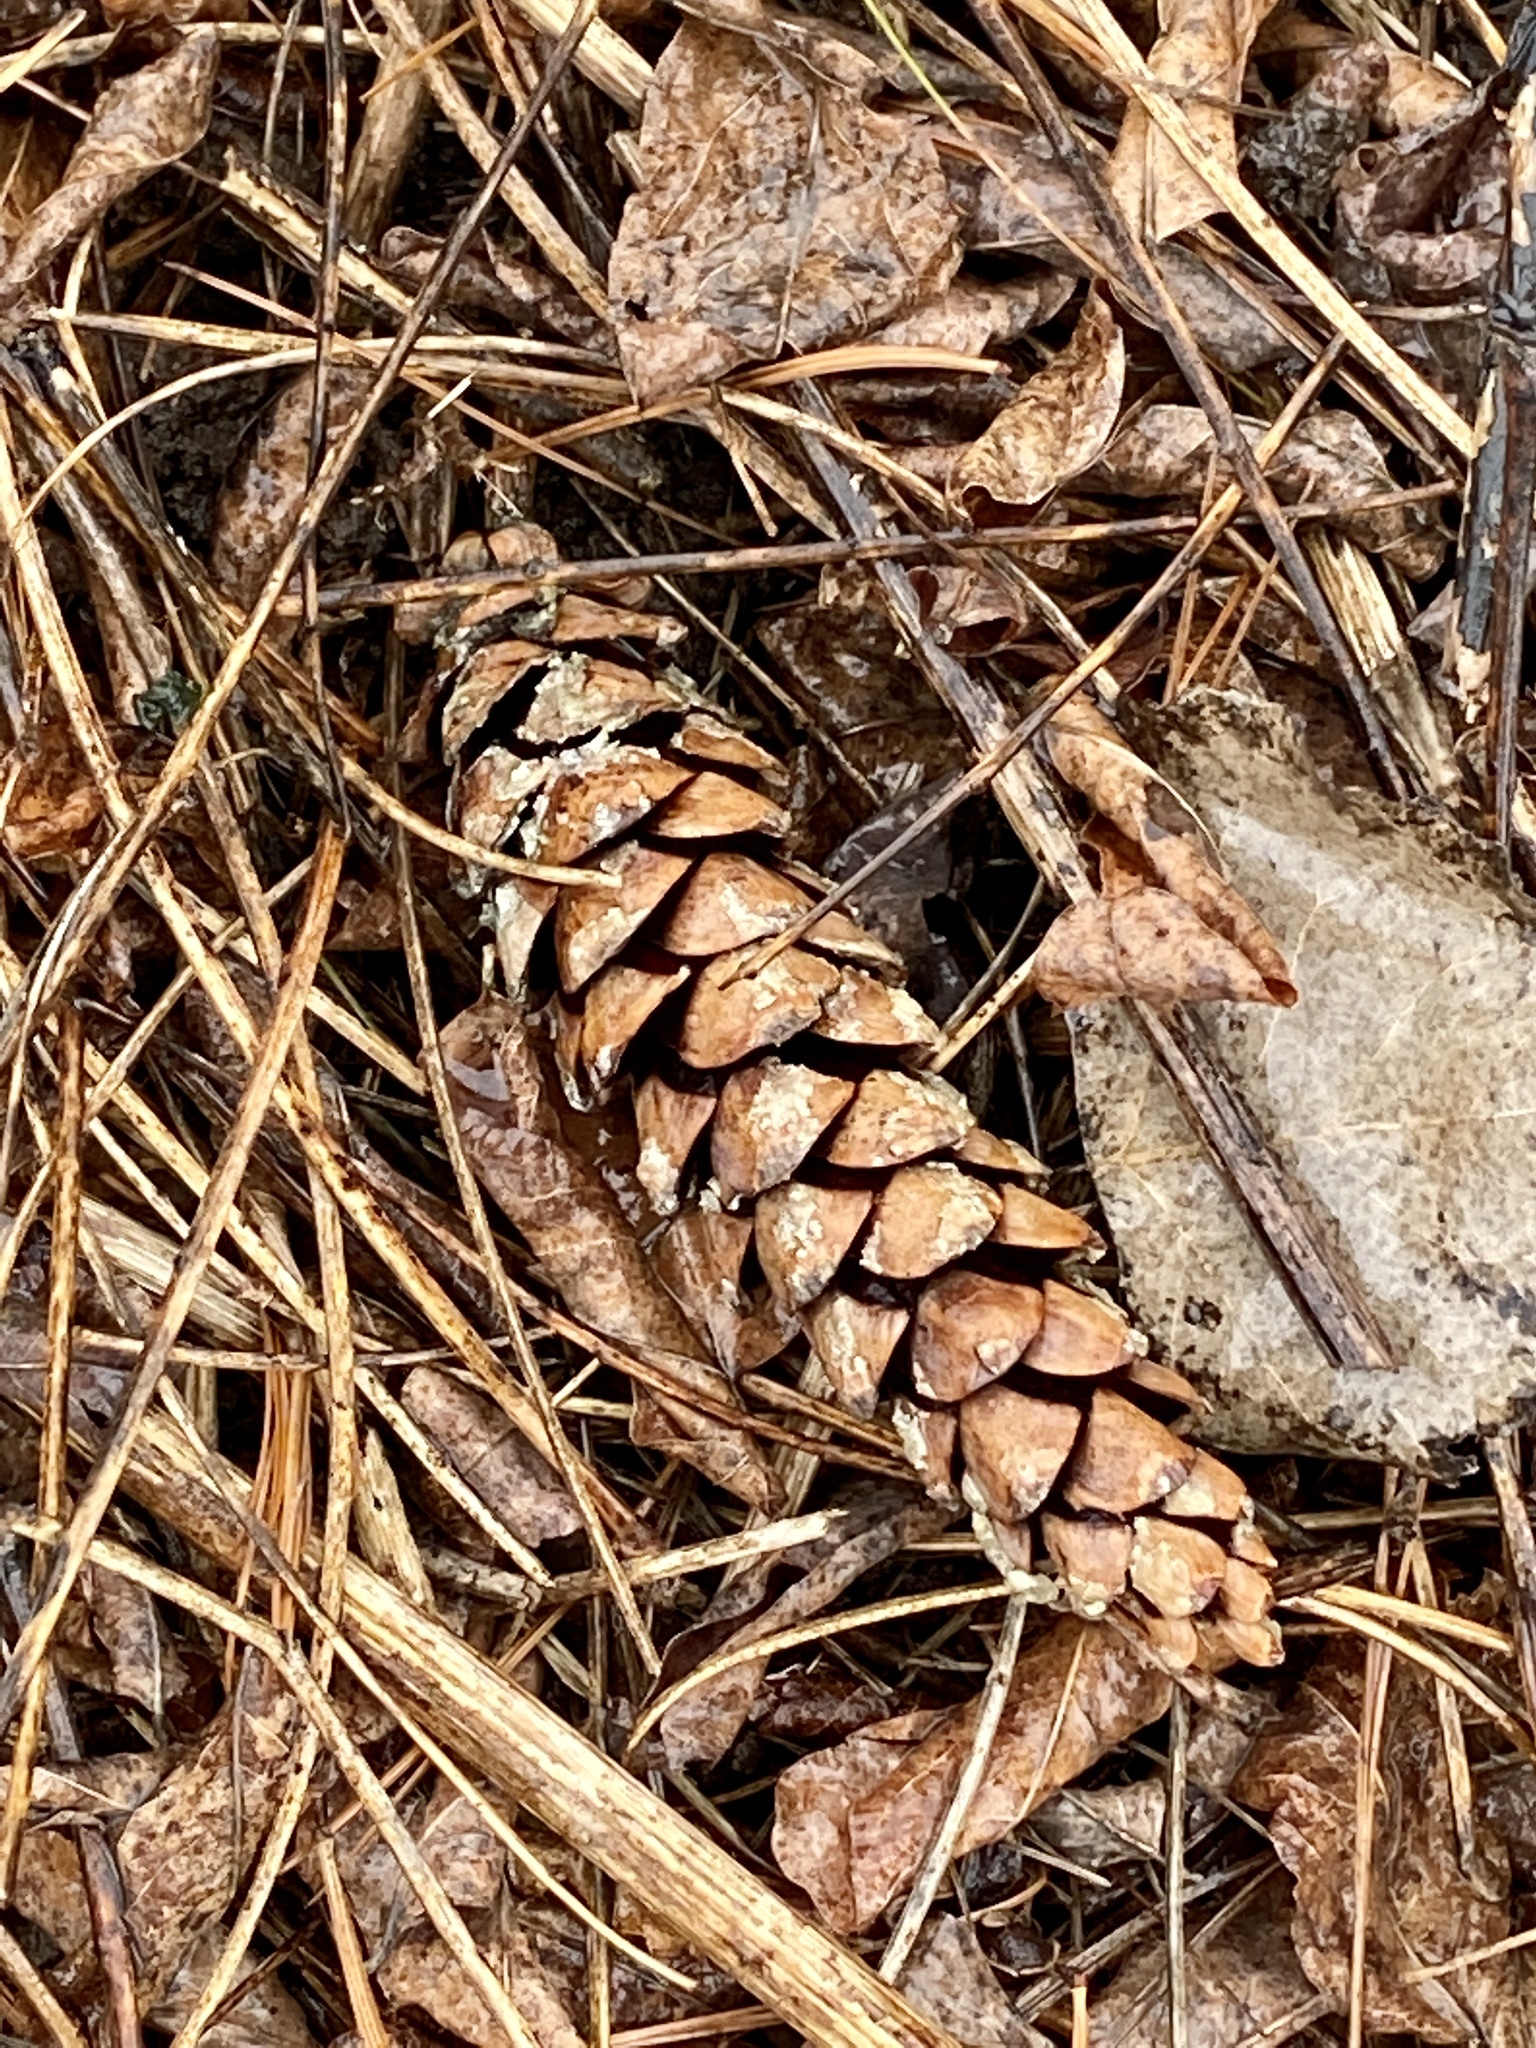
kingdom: Plantae
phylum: Tracheophyta
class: Pinopsida
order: Pinales
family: Pinaceae
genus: Pinus
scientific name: Pinus strobus
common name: Weymouth pine
